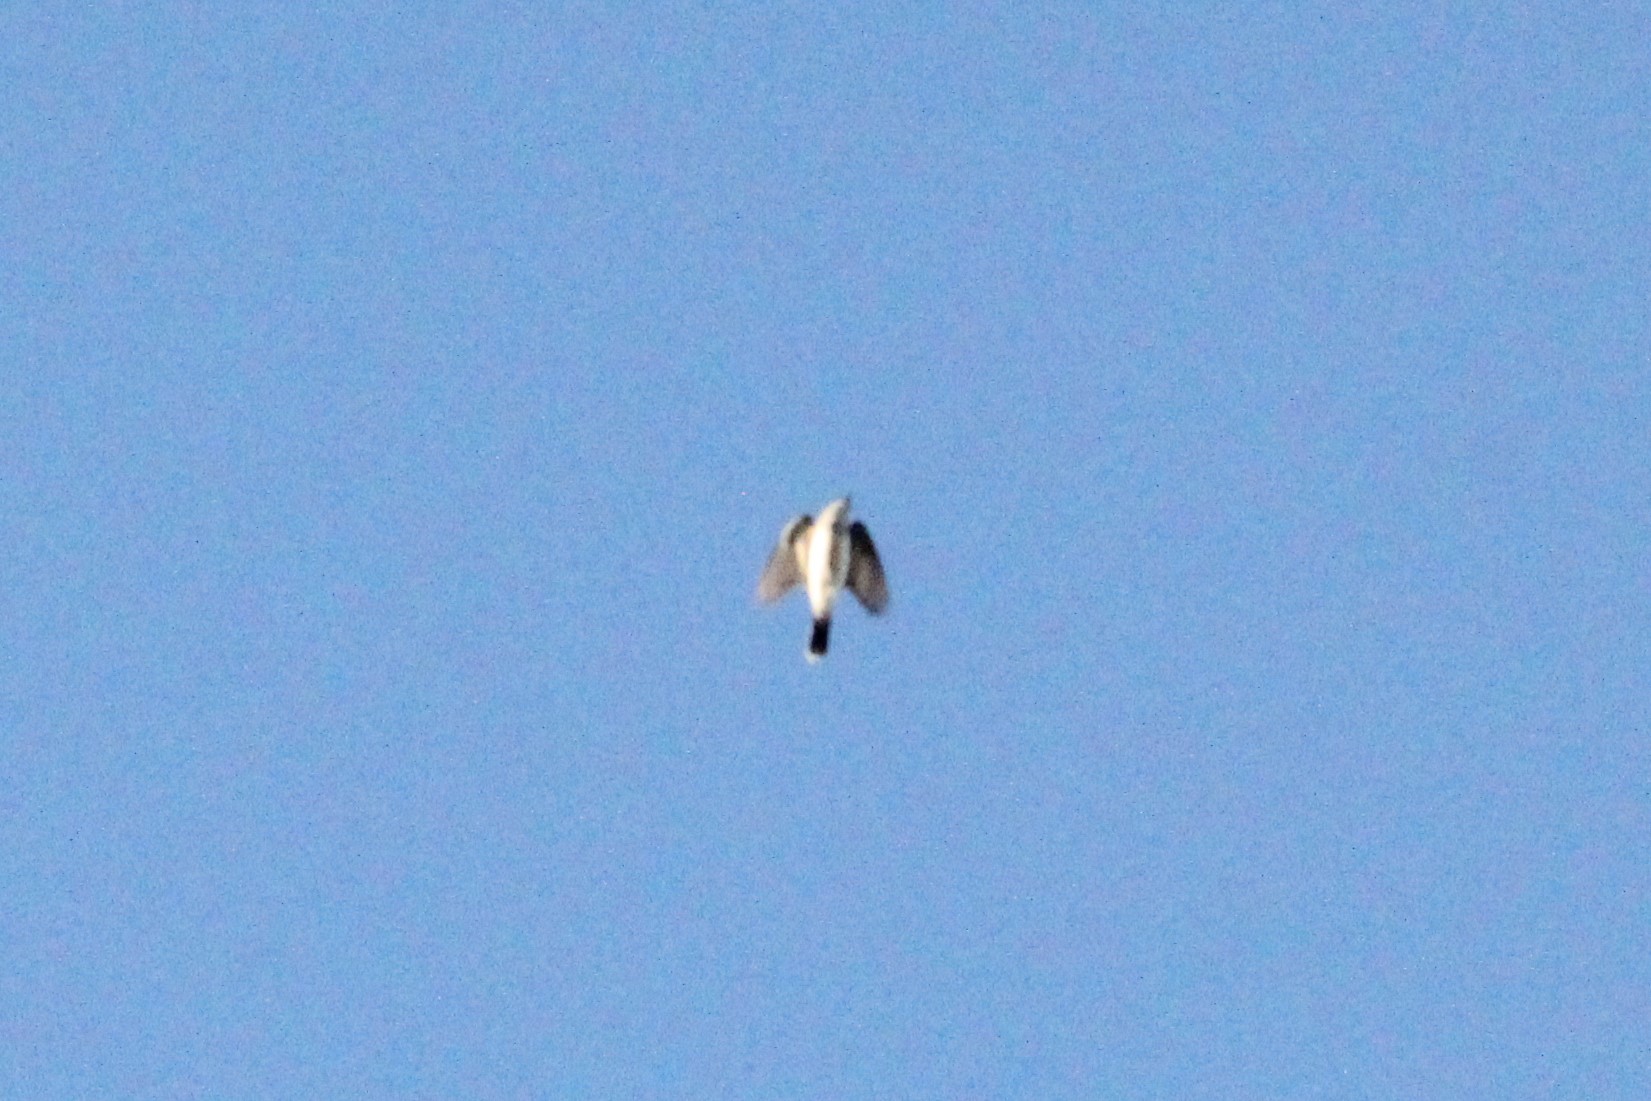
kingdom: Animalia
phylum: Chordata
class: Aves
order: Passeriformes
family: Tyrannidae
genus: Tyrannus
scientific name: Tyrannus tyrannus
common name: Eastern kingbird
